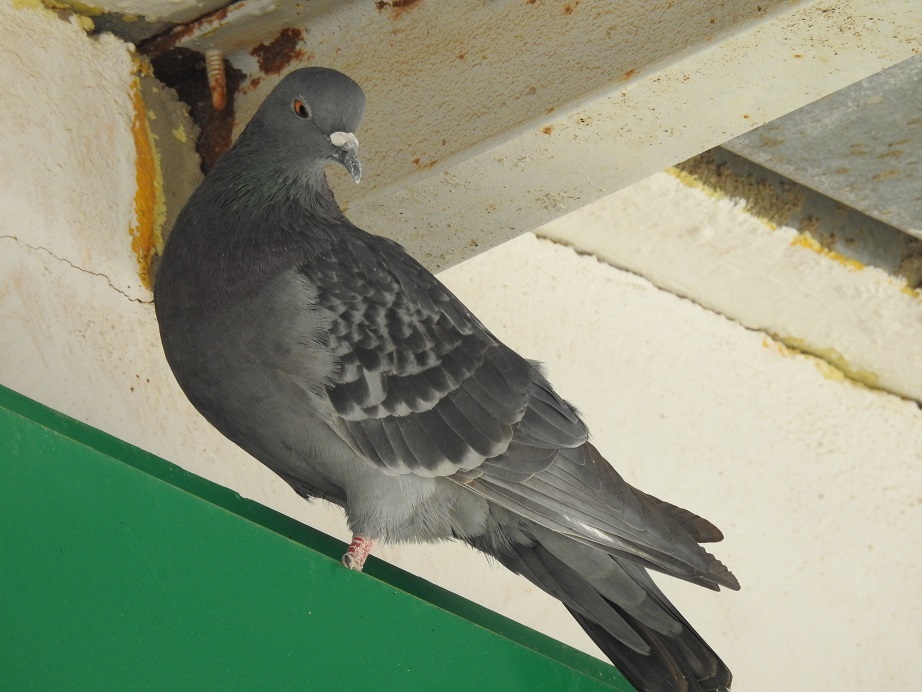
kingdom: Animalia
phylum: Chordata
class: Aves
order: Columbiformes
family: Columbidae
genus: Columba
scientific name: Columba livia
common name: Rock pigeon
